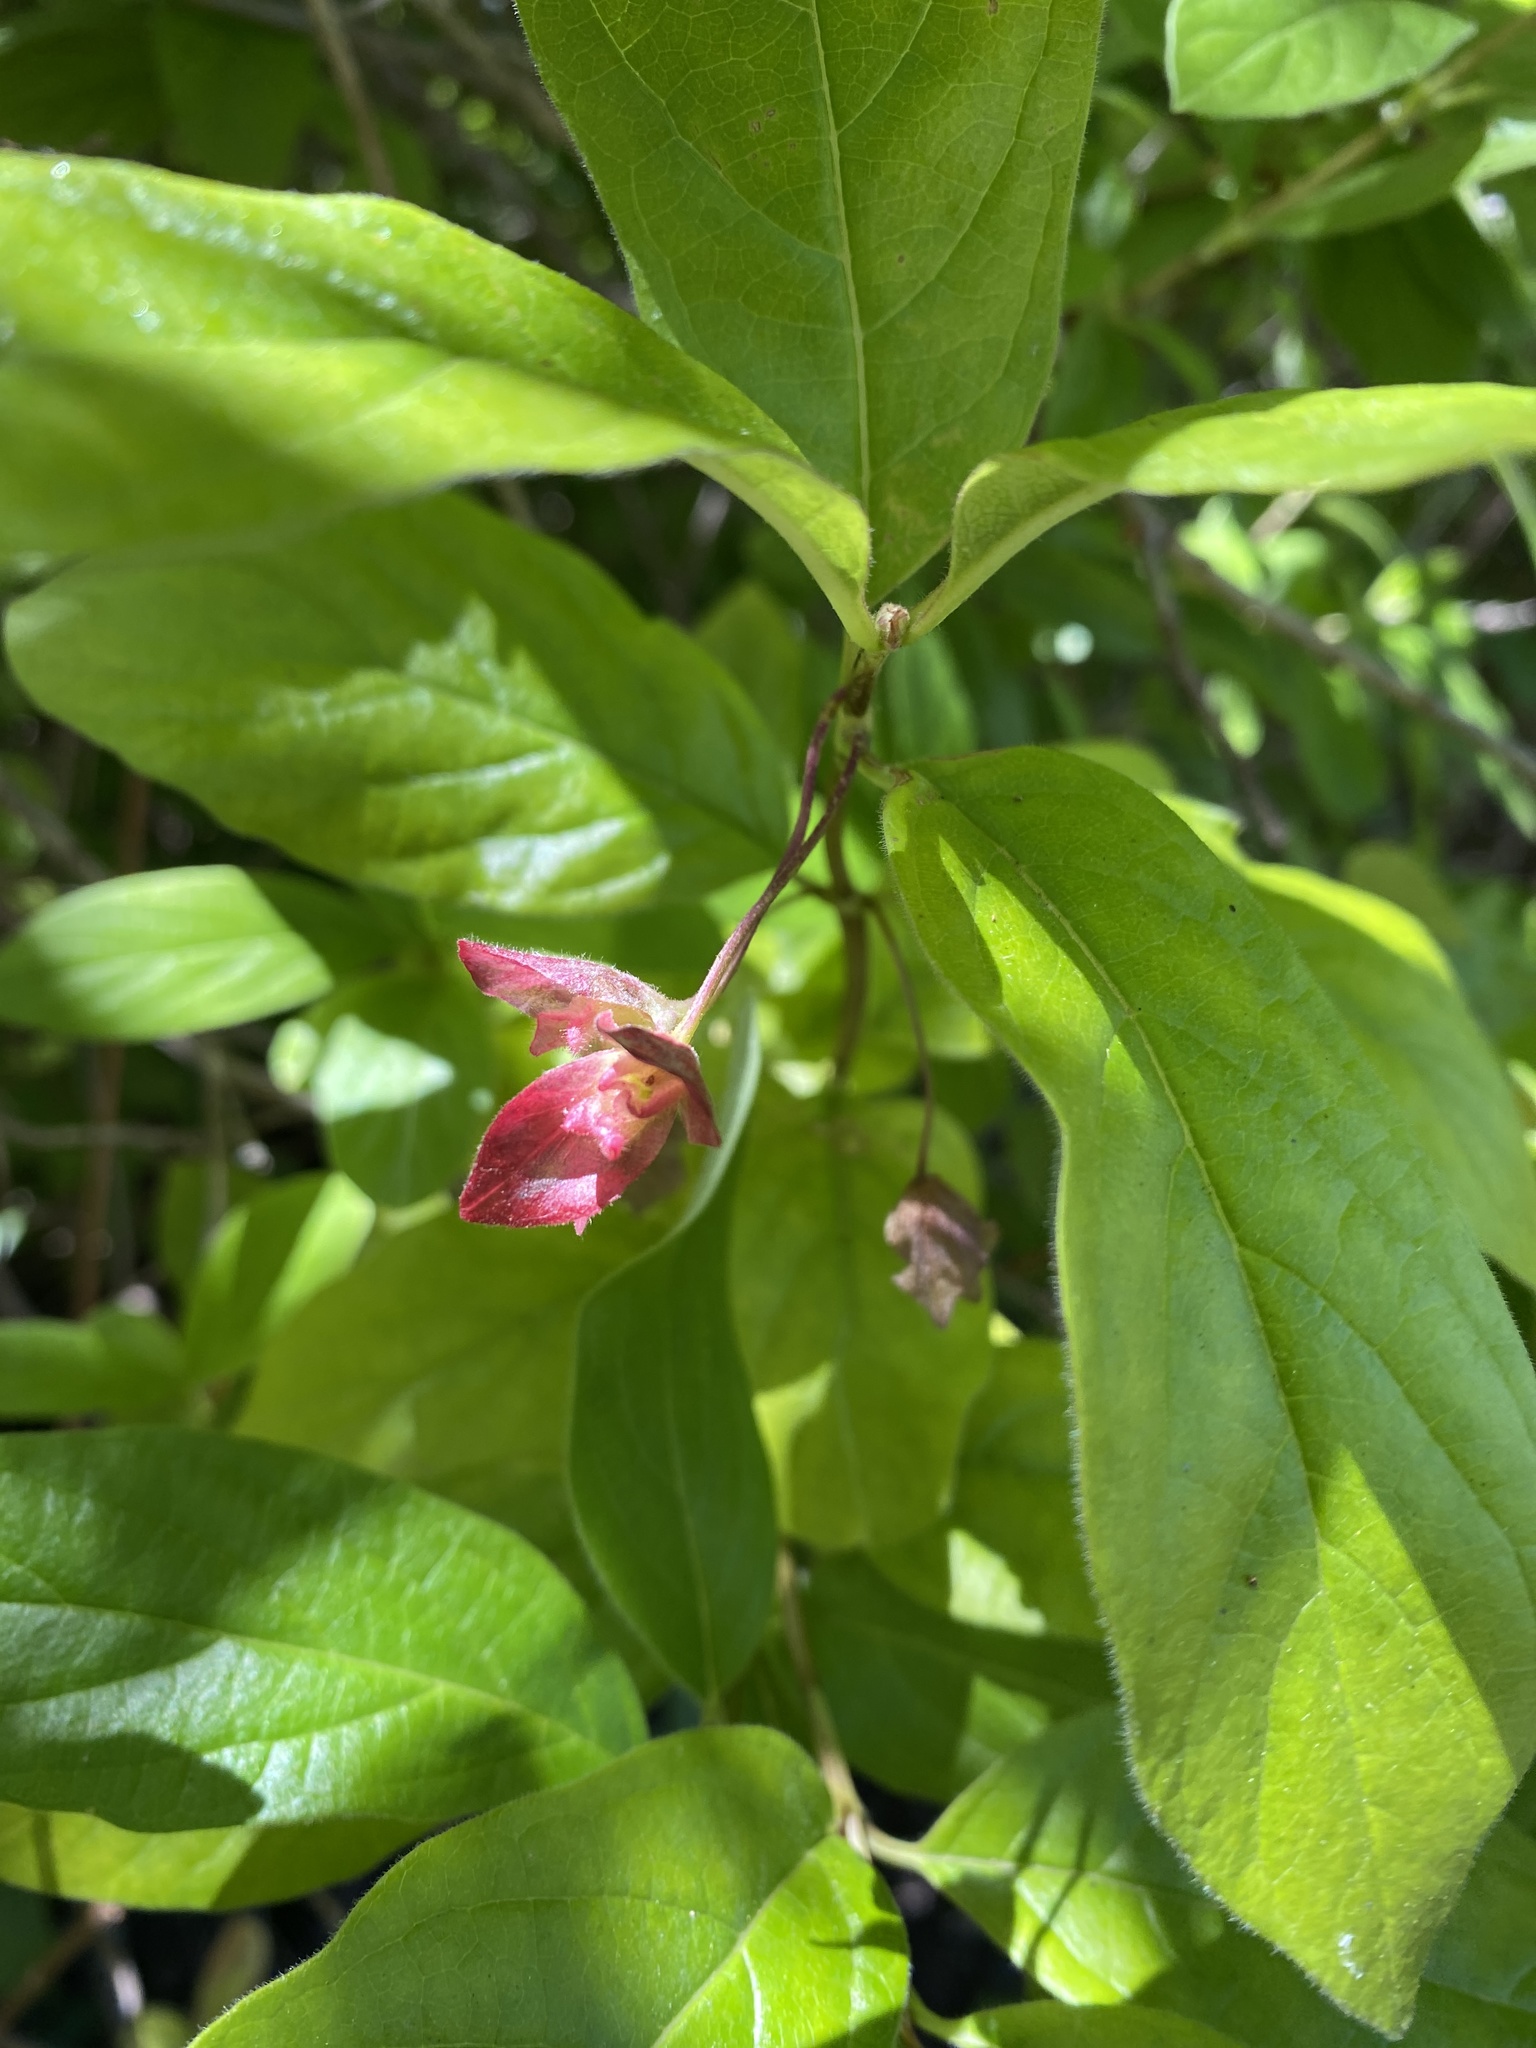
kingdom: Plantae
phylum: Tracheophyta
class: Magnoliopsida
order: Dipsacales
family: Caprifoliaceae
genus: Lonicera
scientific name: Lonicera involucrata
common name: Californian honeysuckle
